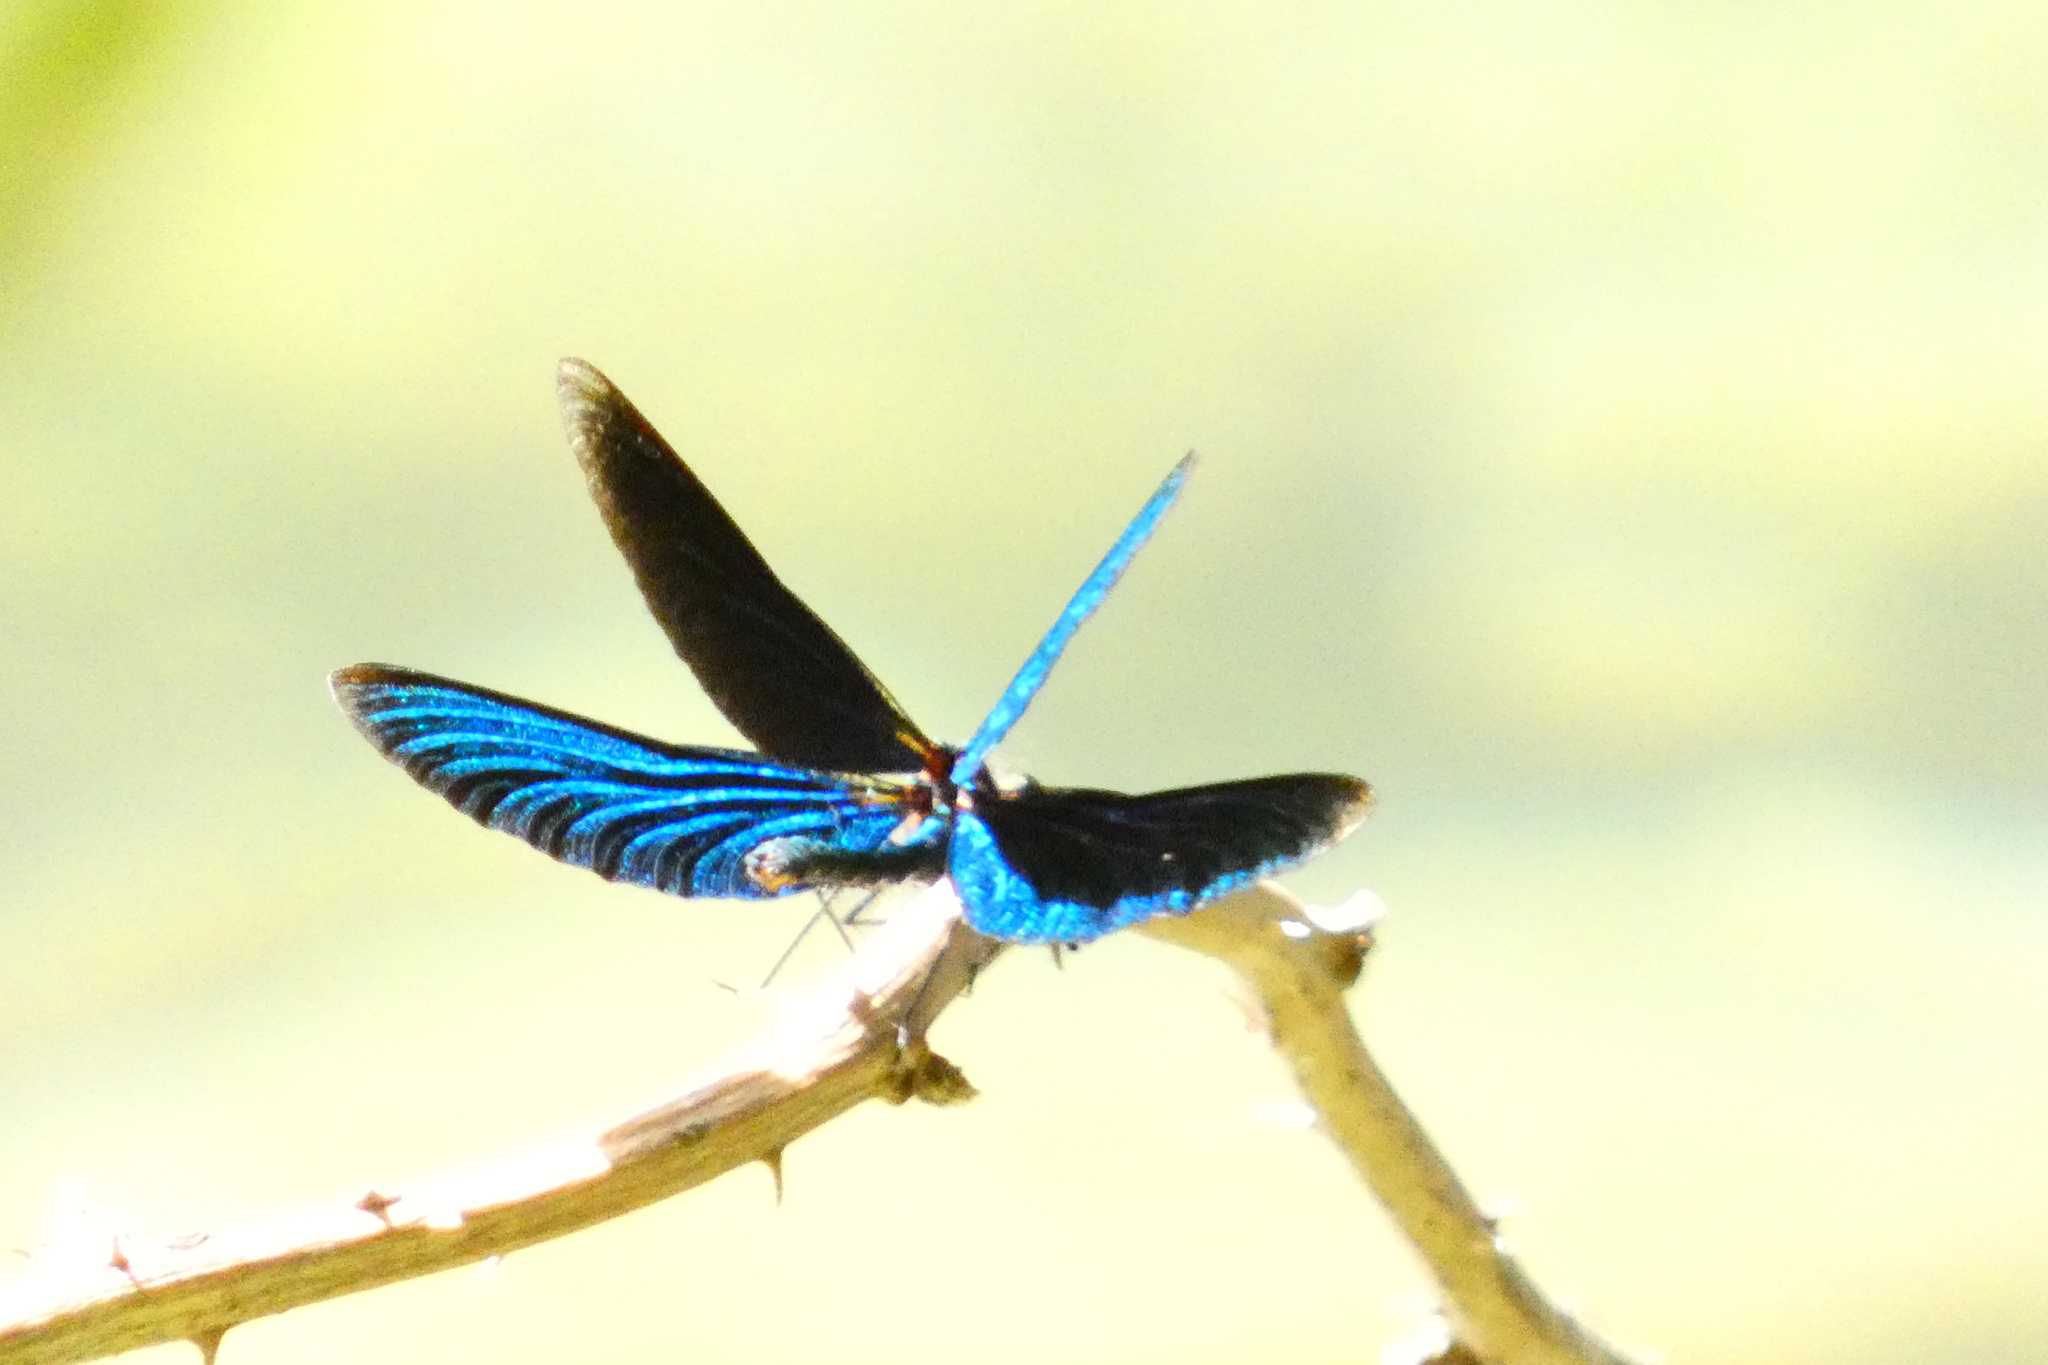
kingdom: Animalia
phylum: Arthropoda
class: Insecta
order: Odonata
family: Calopterygidae
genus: Calopteryx
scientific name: Calopteryx virgo
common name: Beautiful demoiselle
